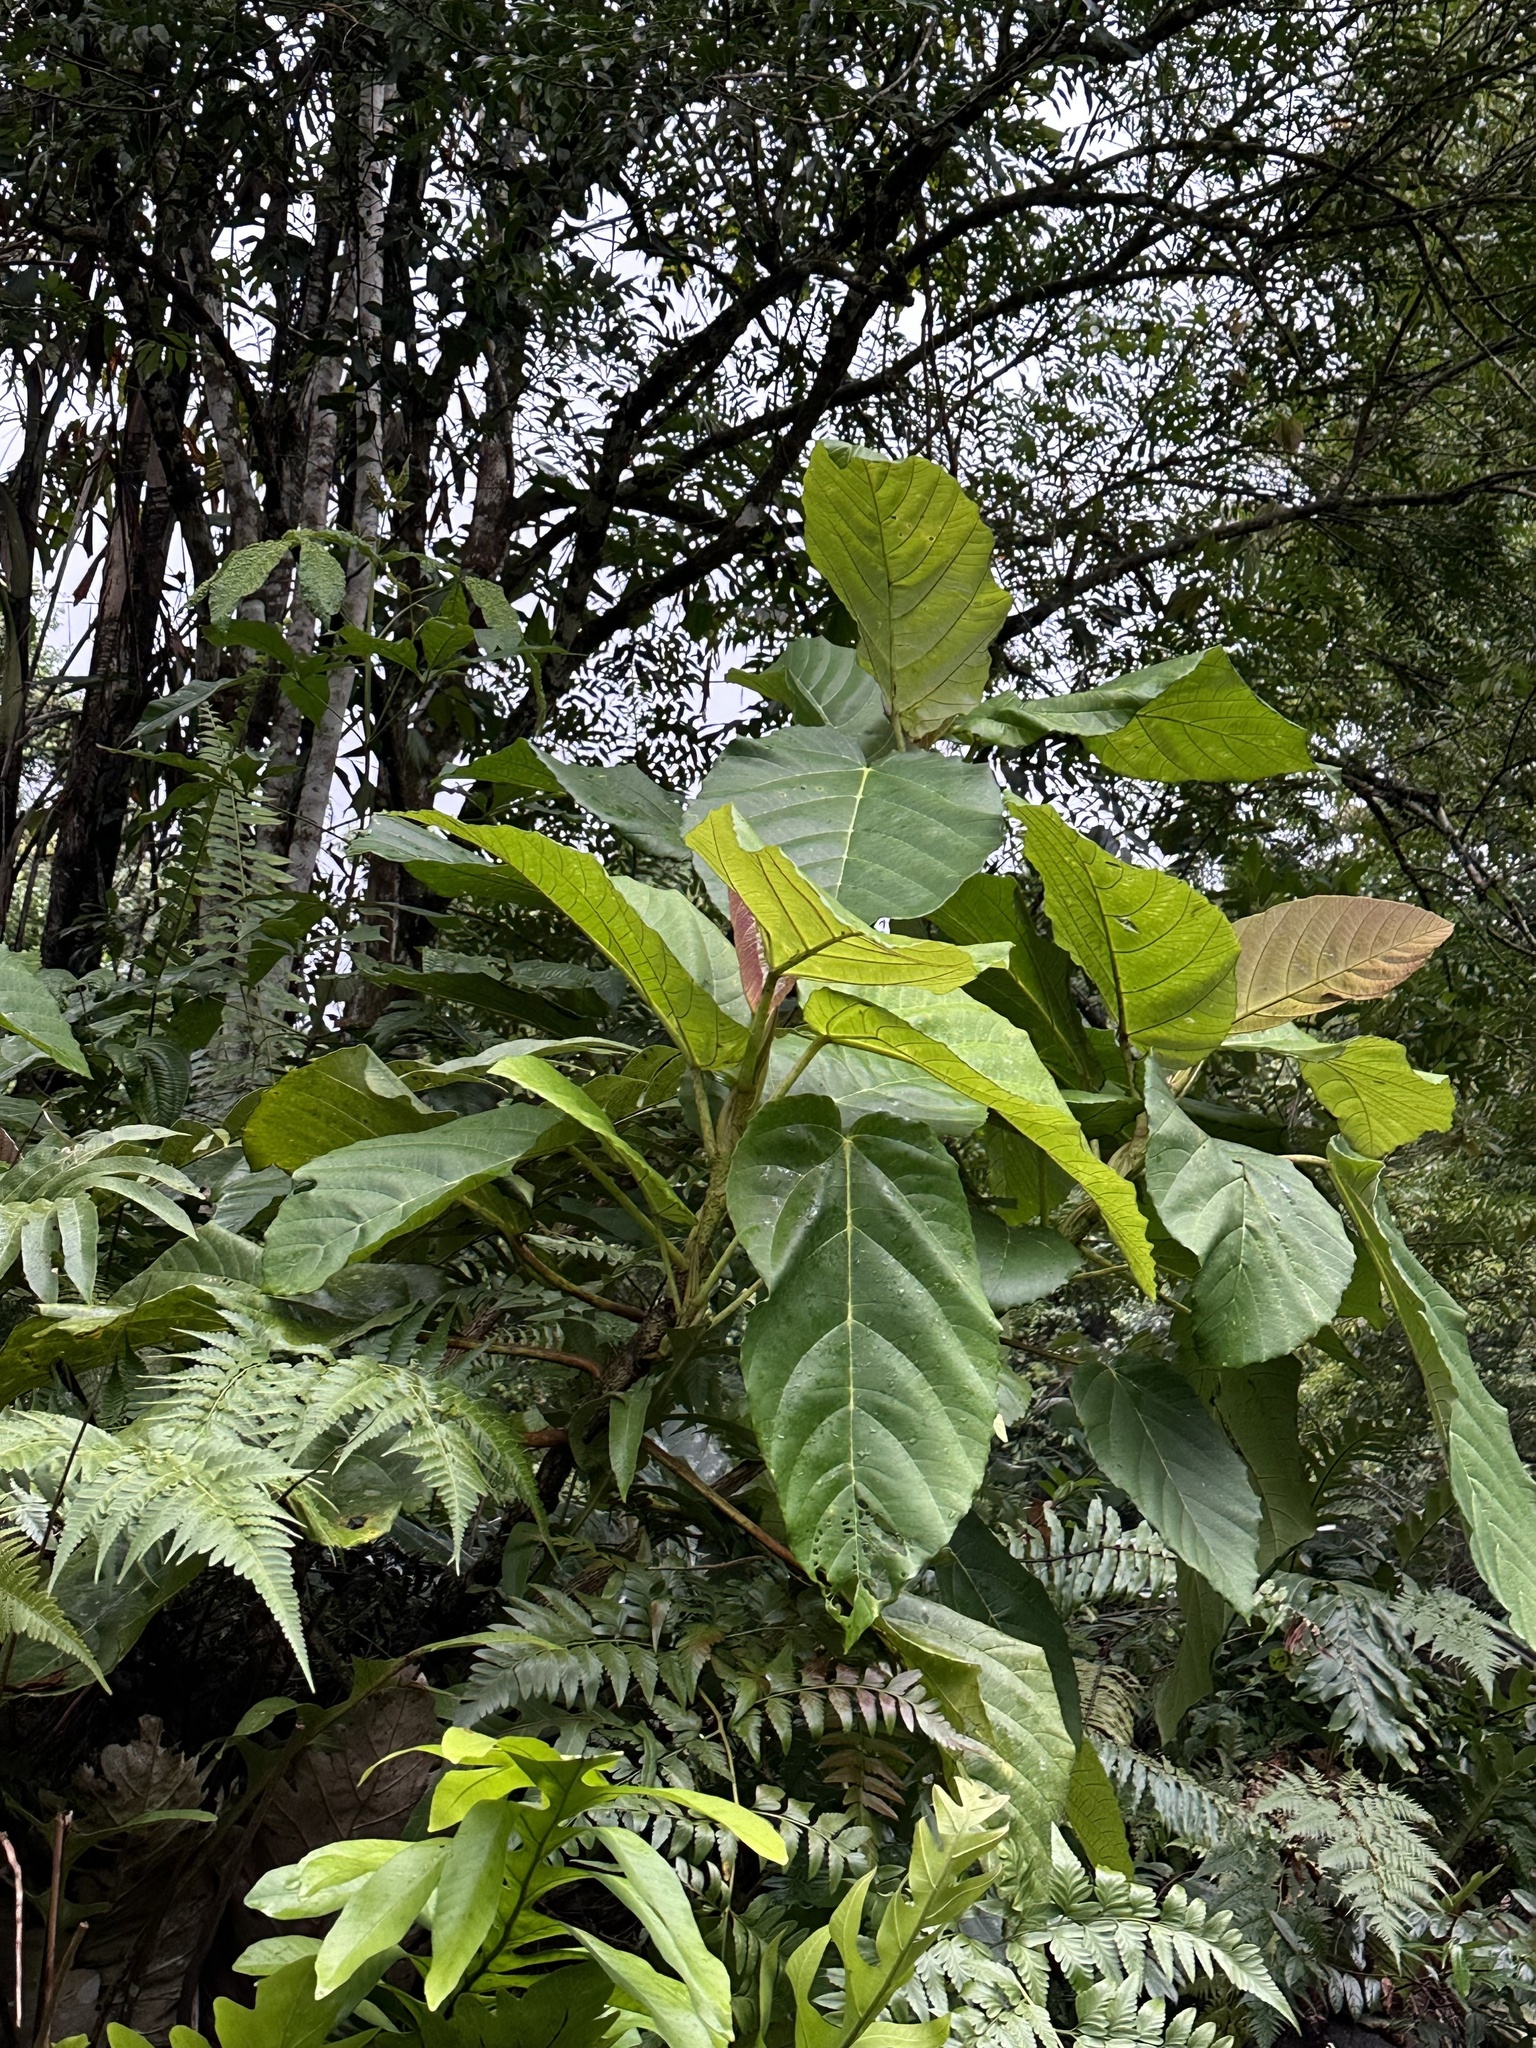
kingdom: Plantae
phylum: Tracheophyta
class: Magnoliopsida
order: Dilleniales
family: Dilleniaceae
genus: Dillenia
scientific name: Dillenia suffruticosa
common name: Shrubby dillenia
